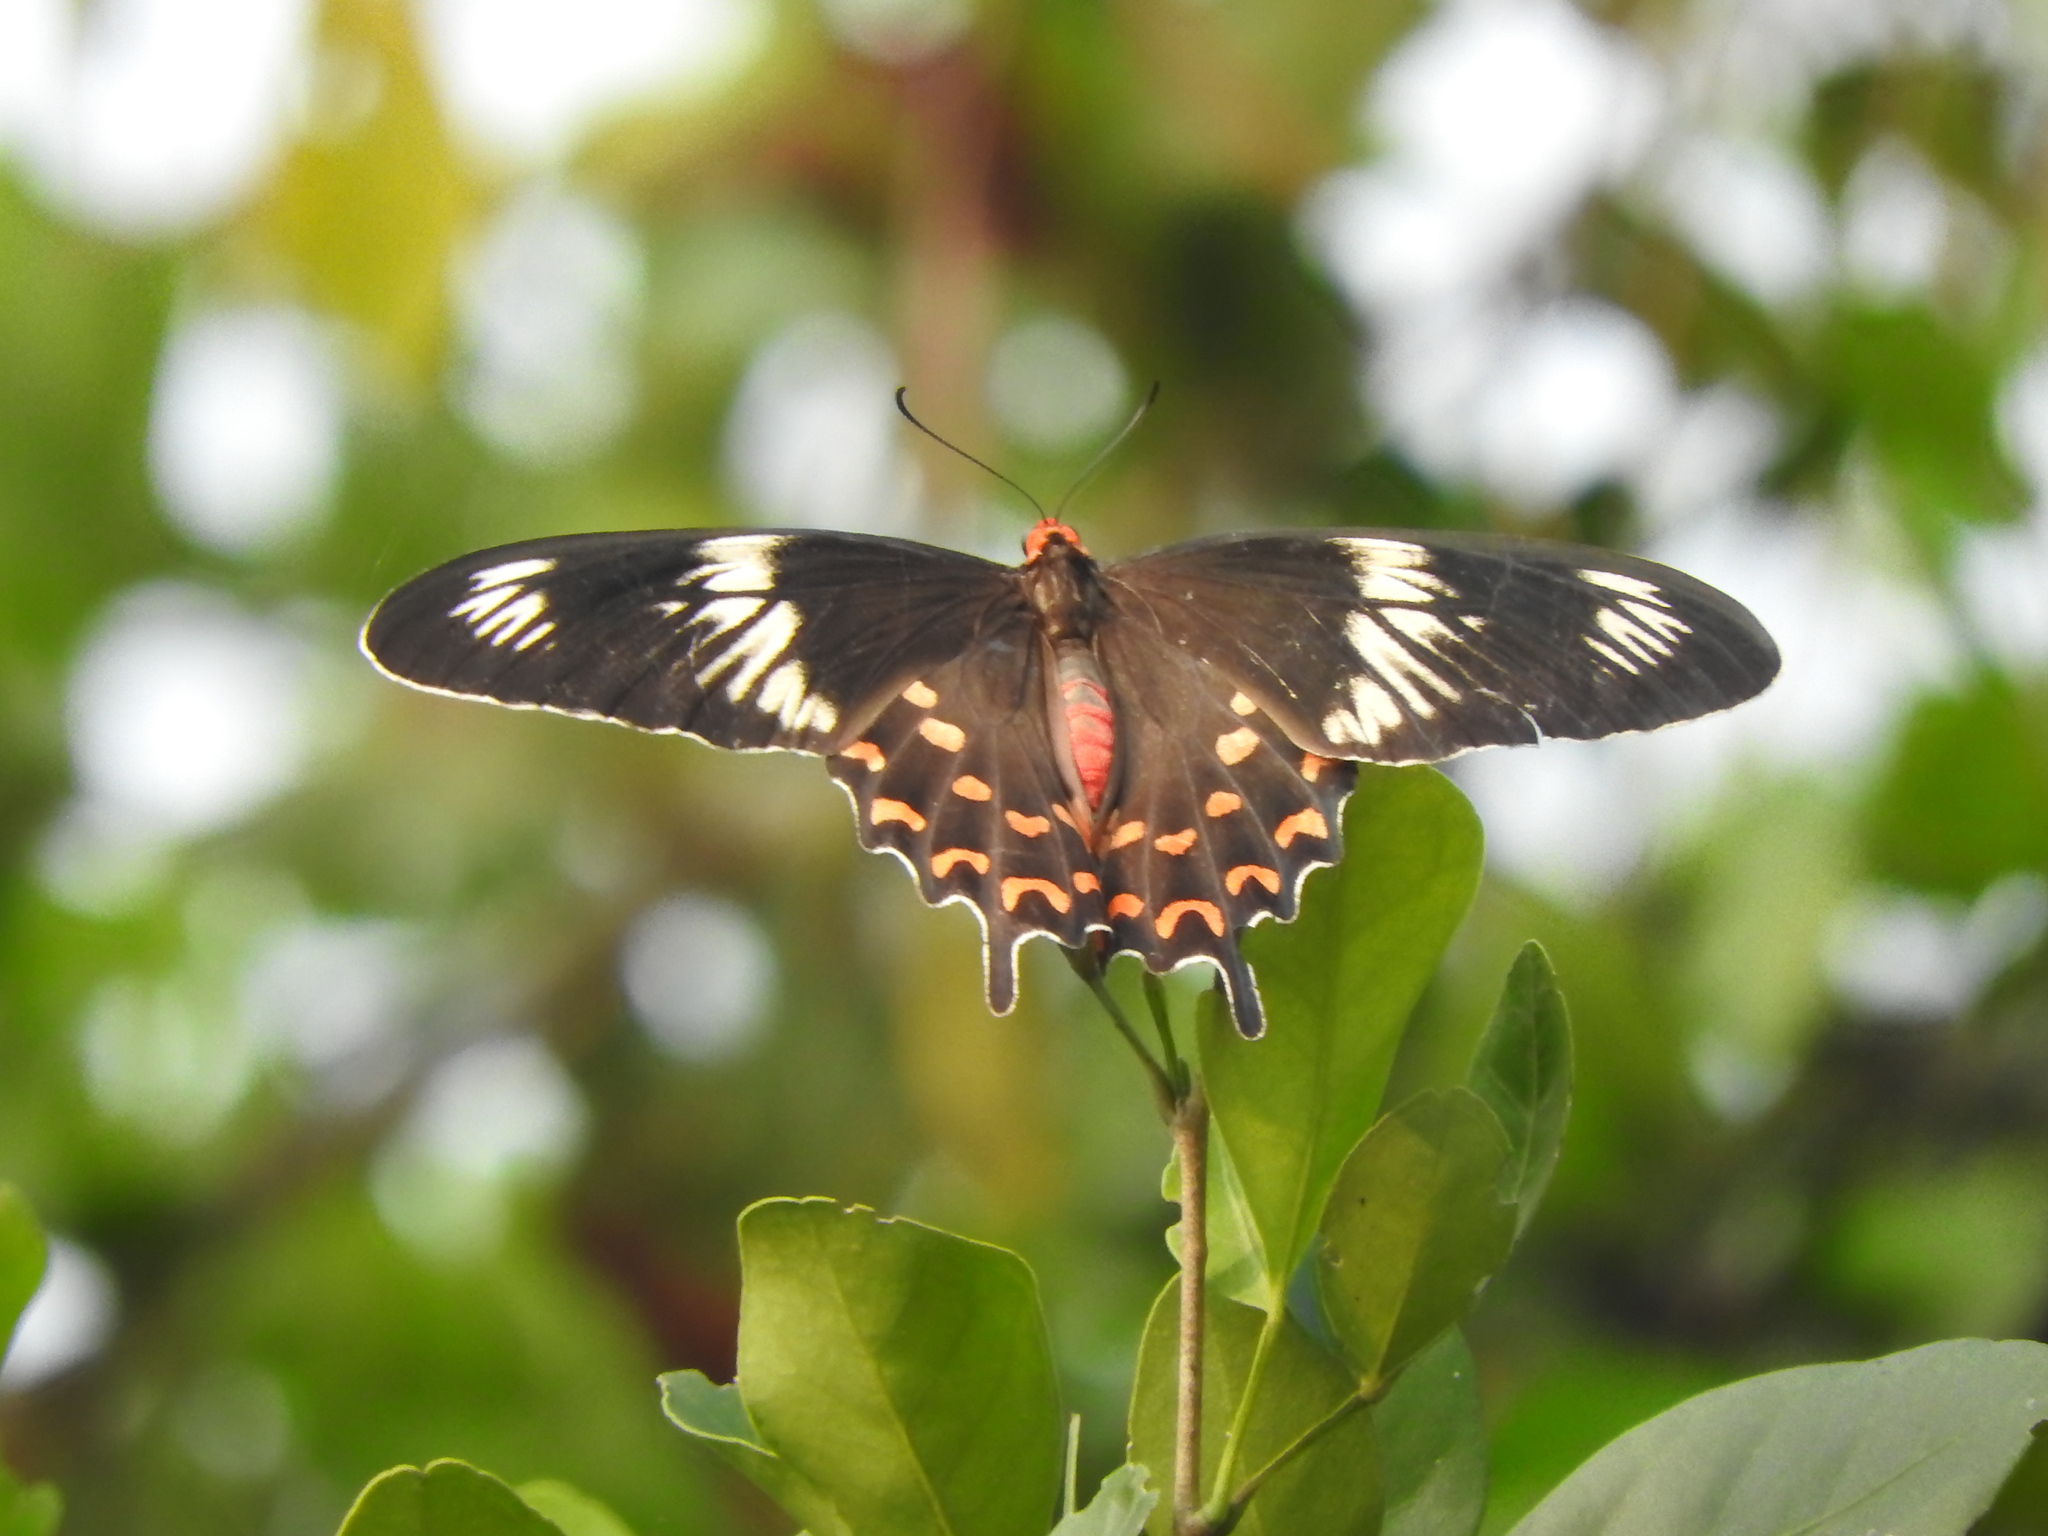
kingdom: Animalia
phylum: Arthropoda
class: Insecta
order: Lepidoptera
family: Papilionidae
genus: Pachliopta
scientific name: Pachliopta hector
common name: Crimson rose
